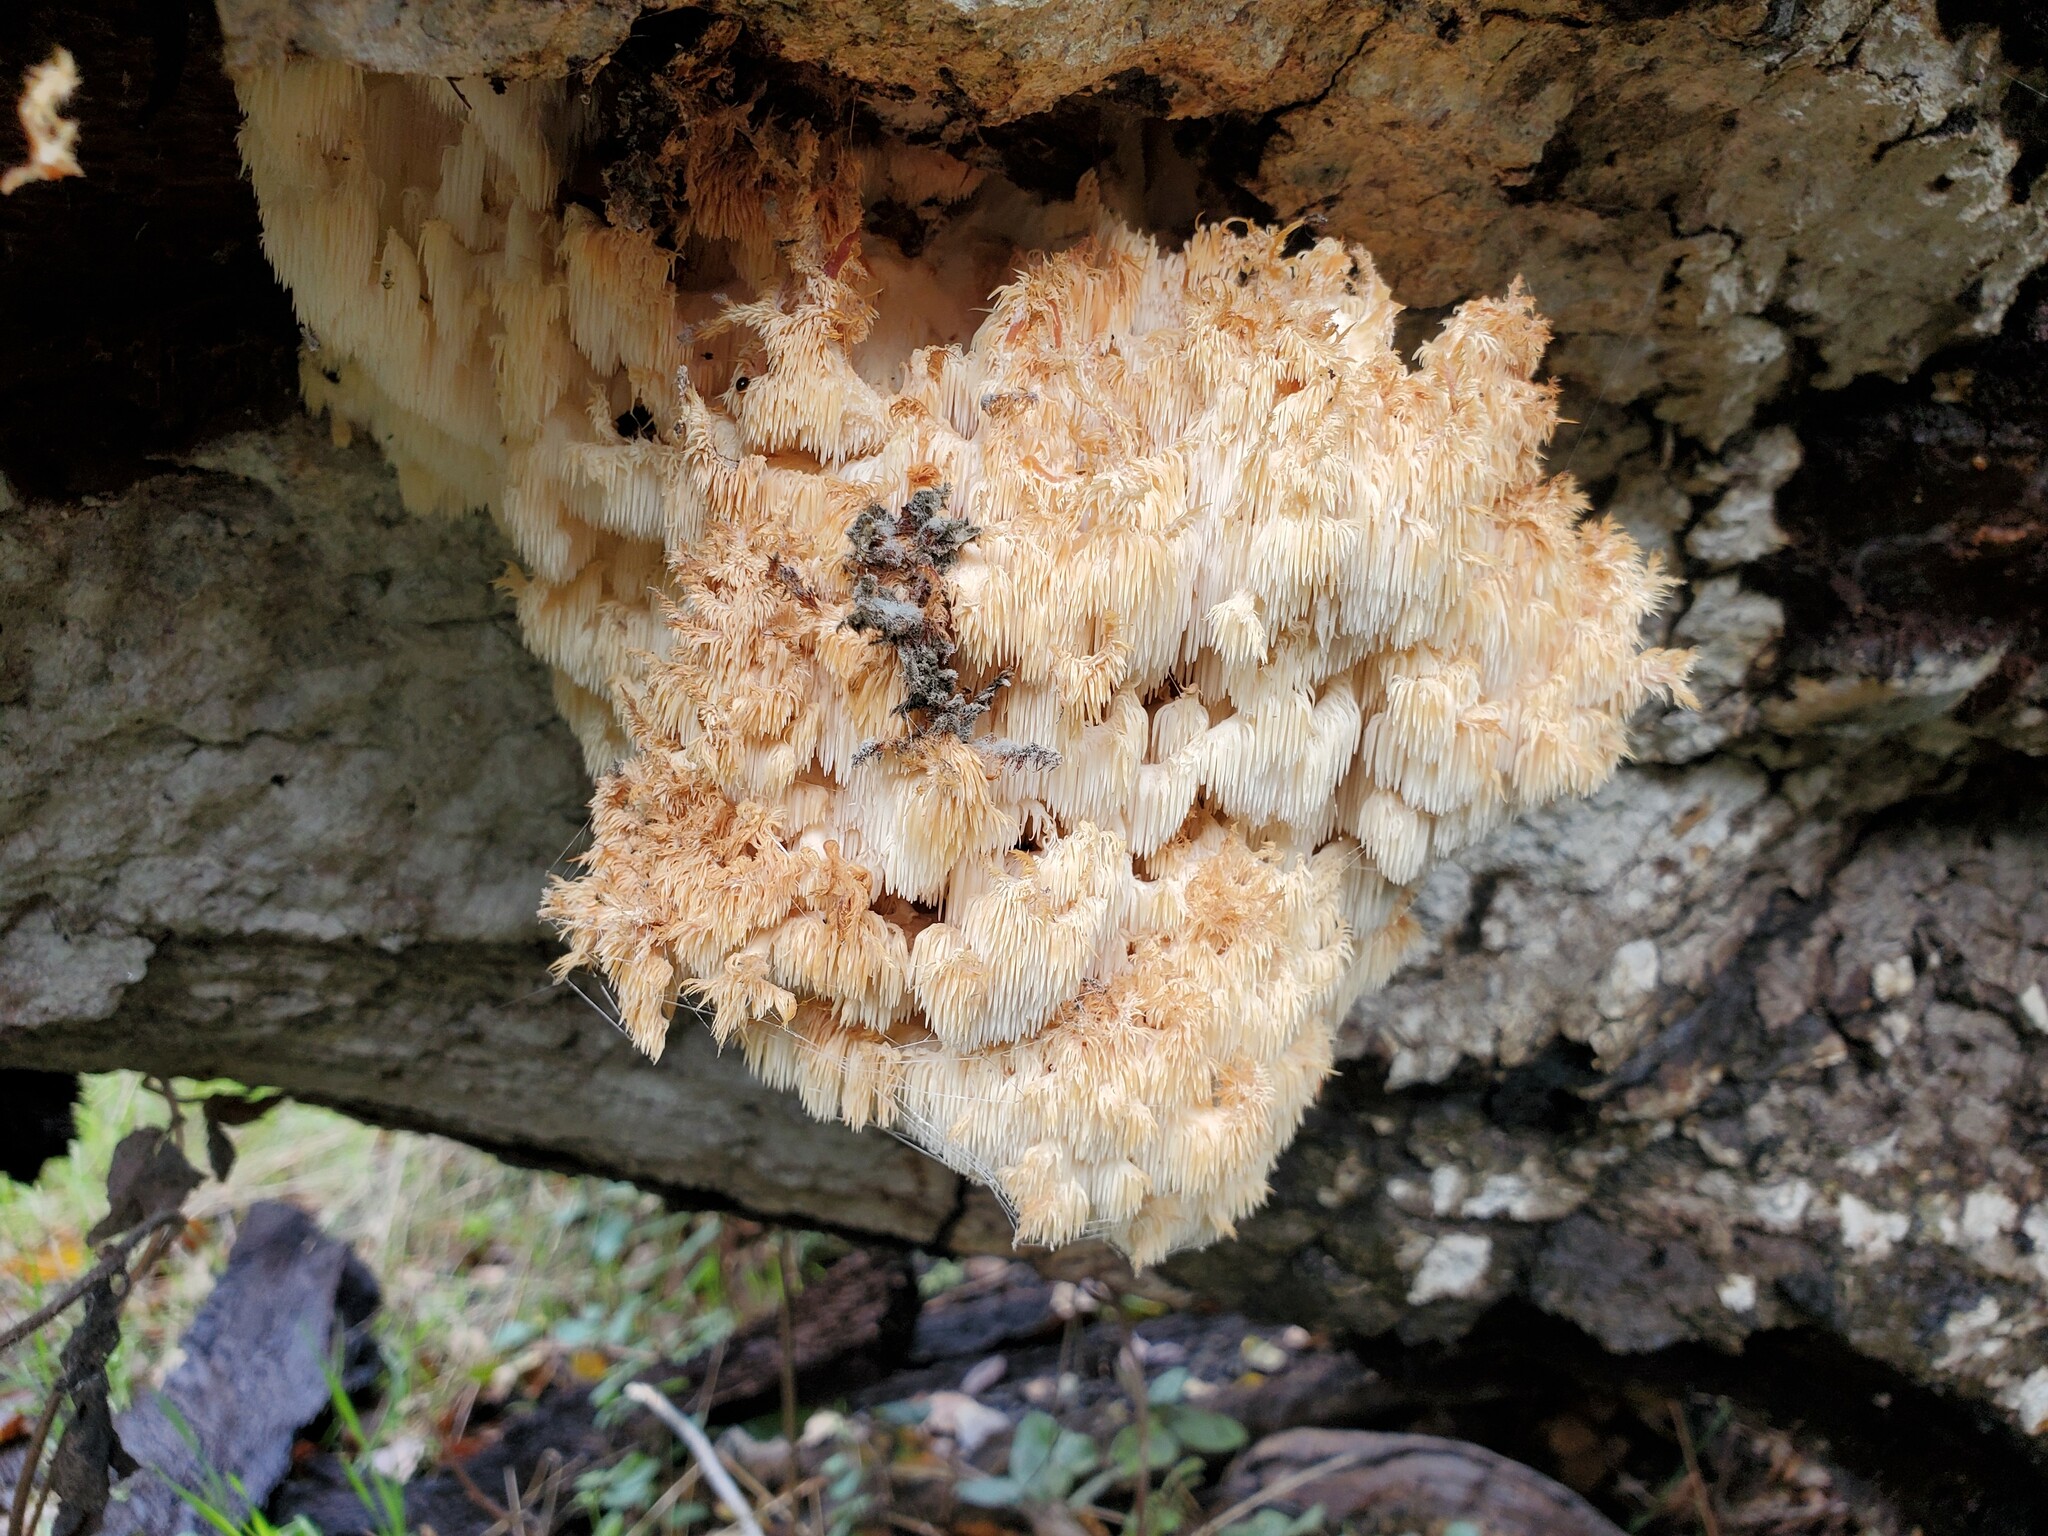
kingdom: Fungi
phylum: Basidiomycota
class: Agaricomycetes
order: Russulales
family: Hericiaceae
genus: Hericium
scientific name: Hericium coralloides
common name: Coral tooth
